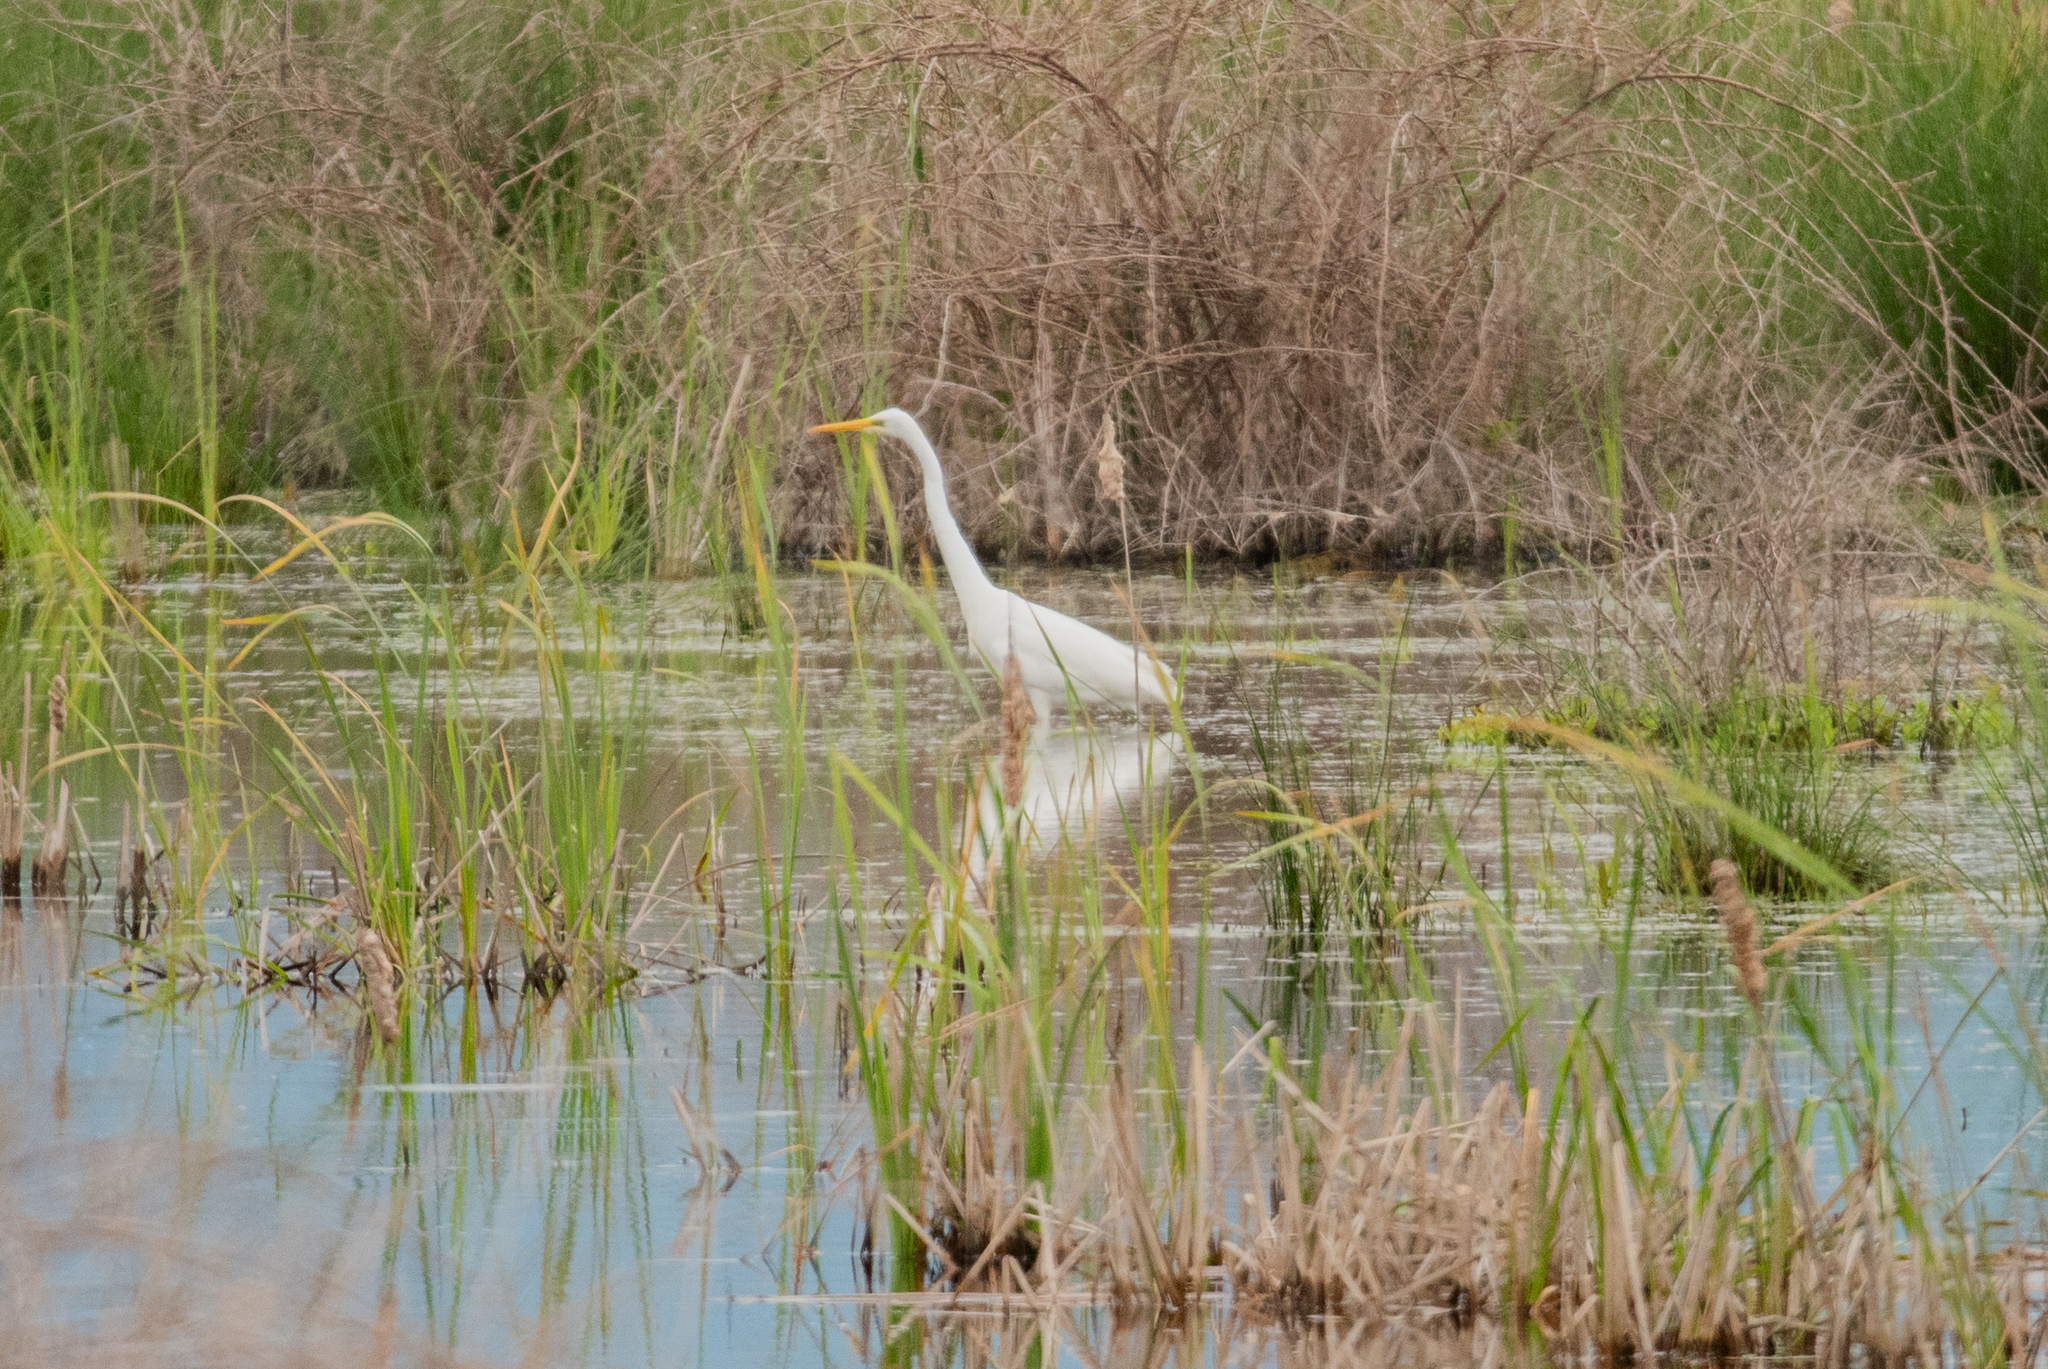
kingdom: Animalia
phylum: Chordata
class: Aves
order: Pelecaniformes
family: Ardeidae
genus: Ardea
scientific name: Ardea alba
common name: Great egret
